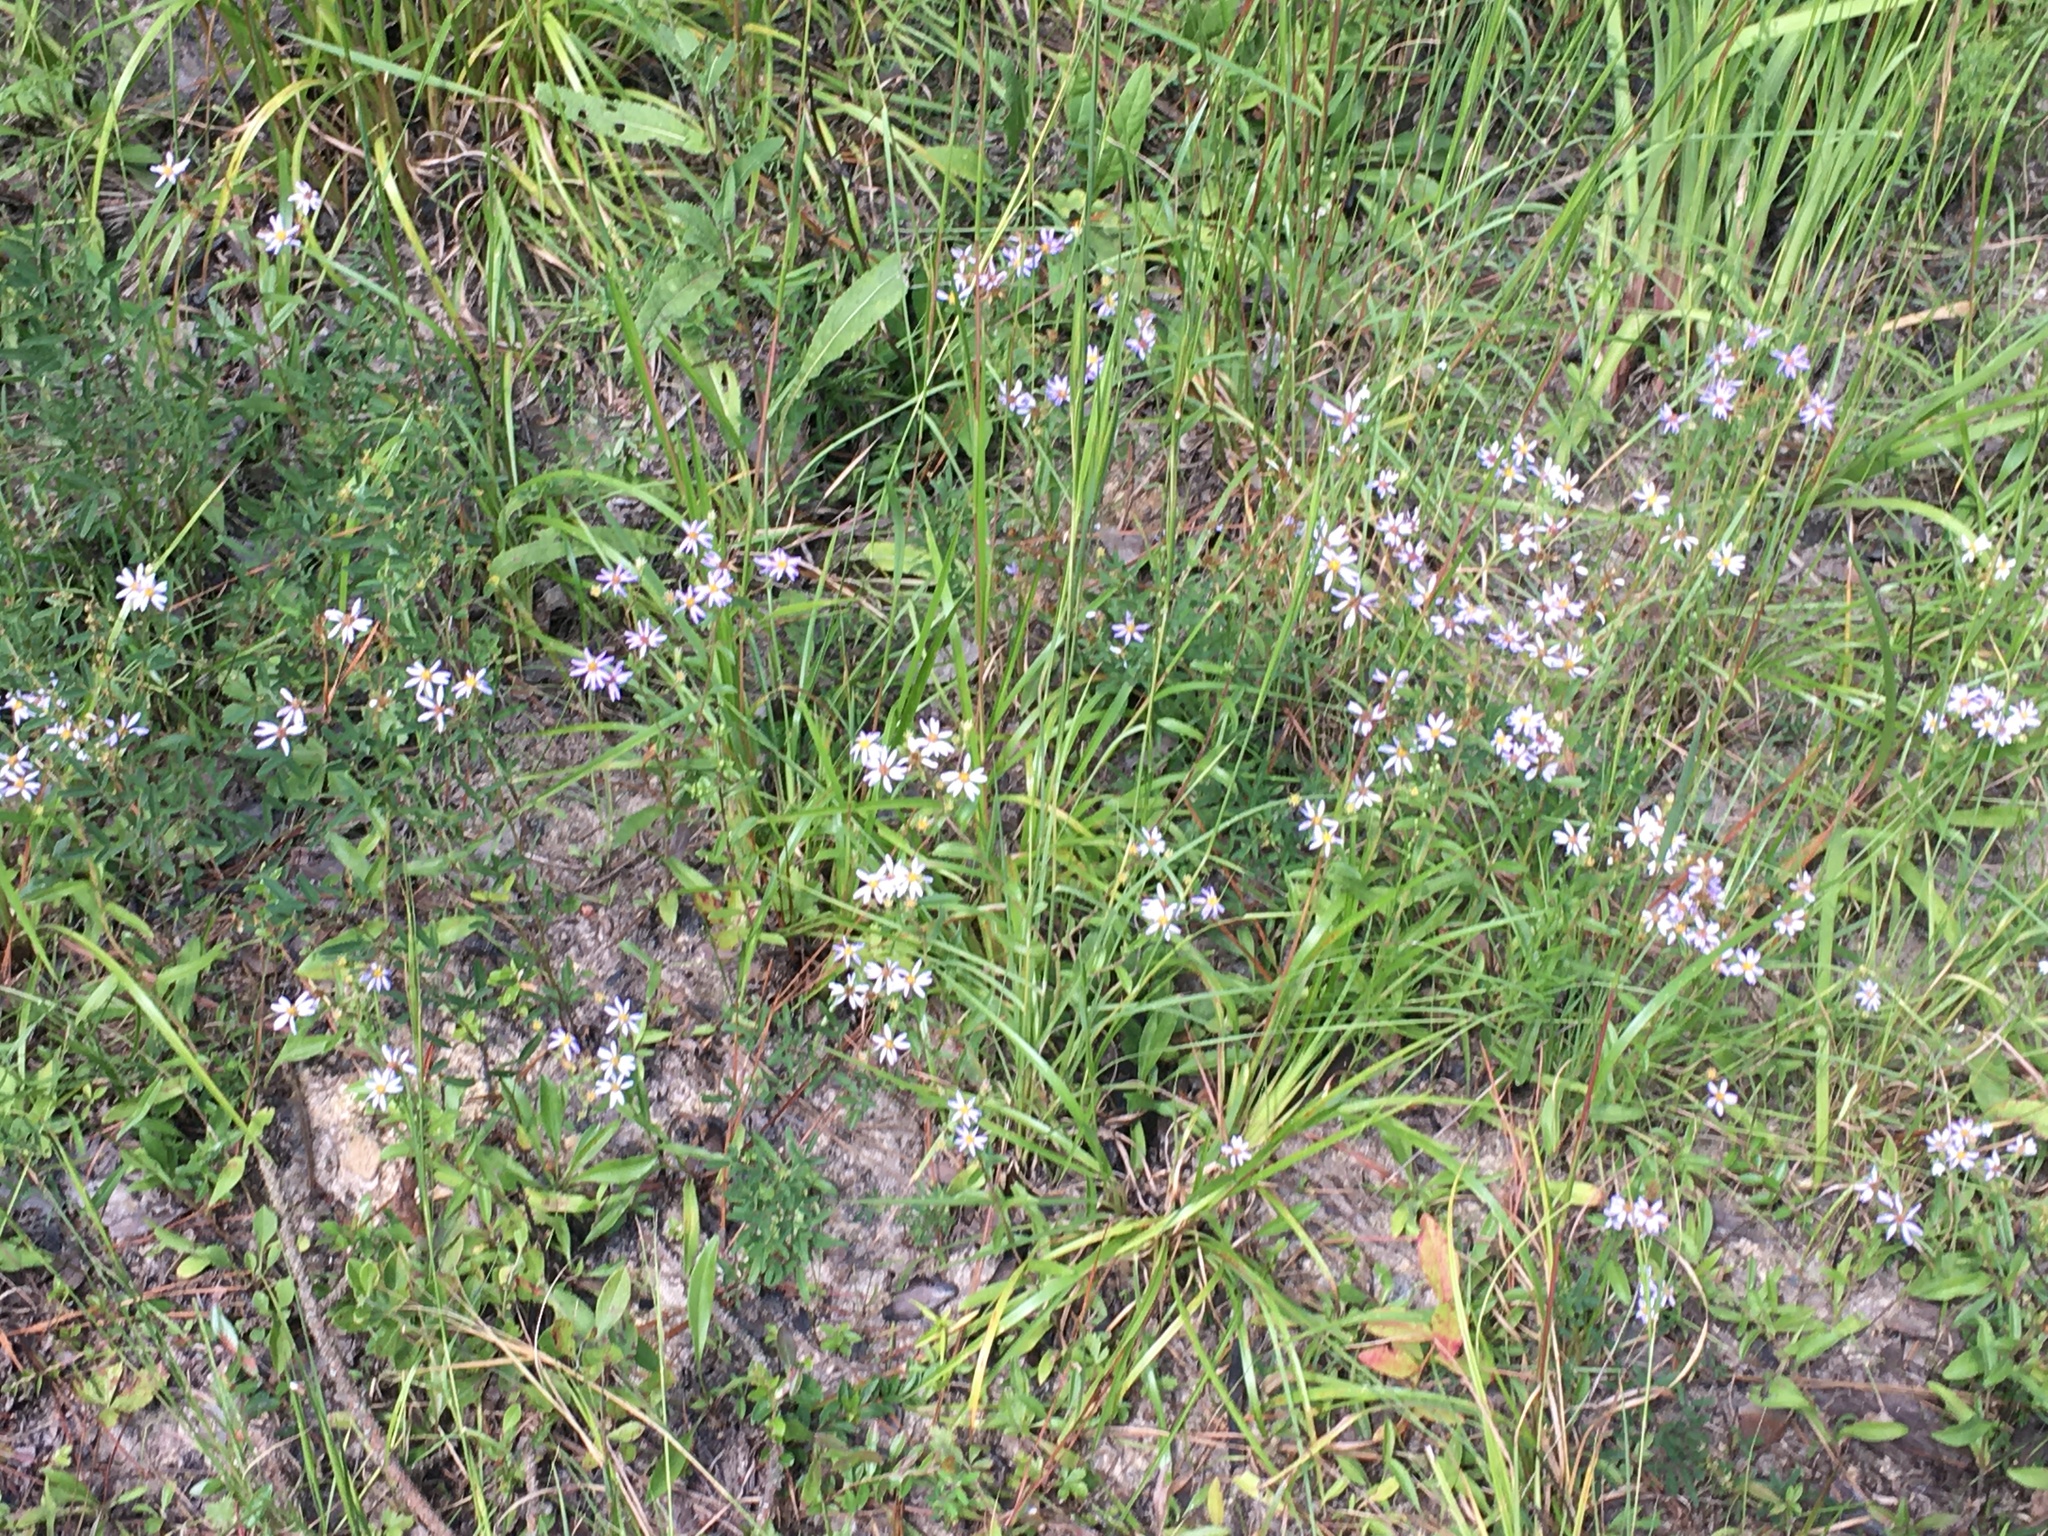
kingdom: Plantae
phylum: Tracheophyta
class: Magnoliopsida
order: Asterales
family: Asteraceae
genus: Eurybia
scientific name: Eurybia compacta
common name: Slender aster
